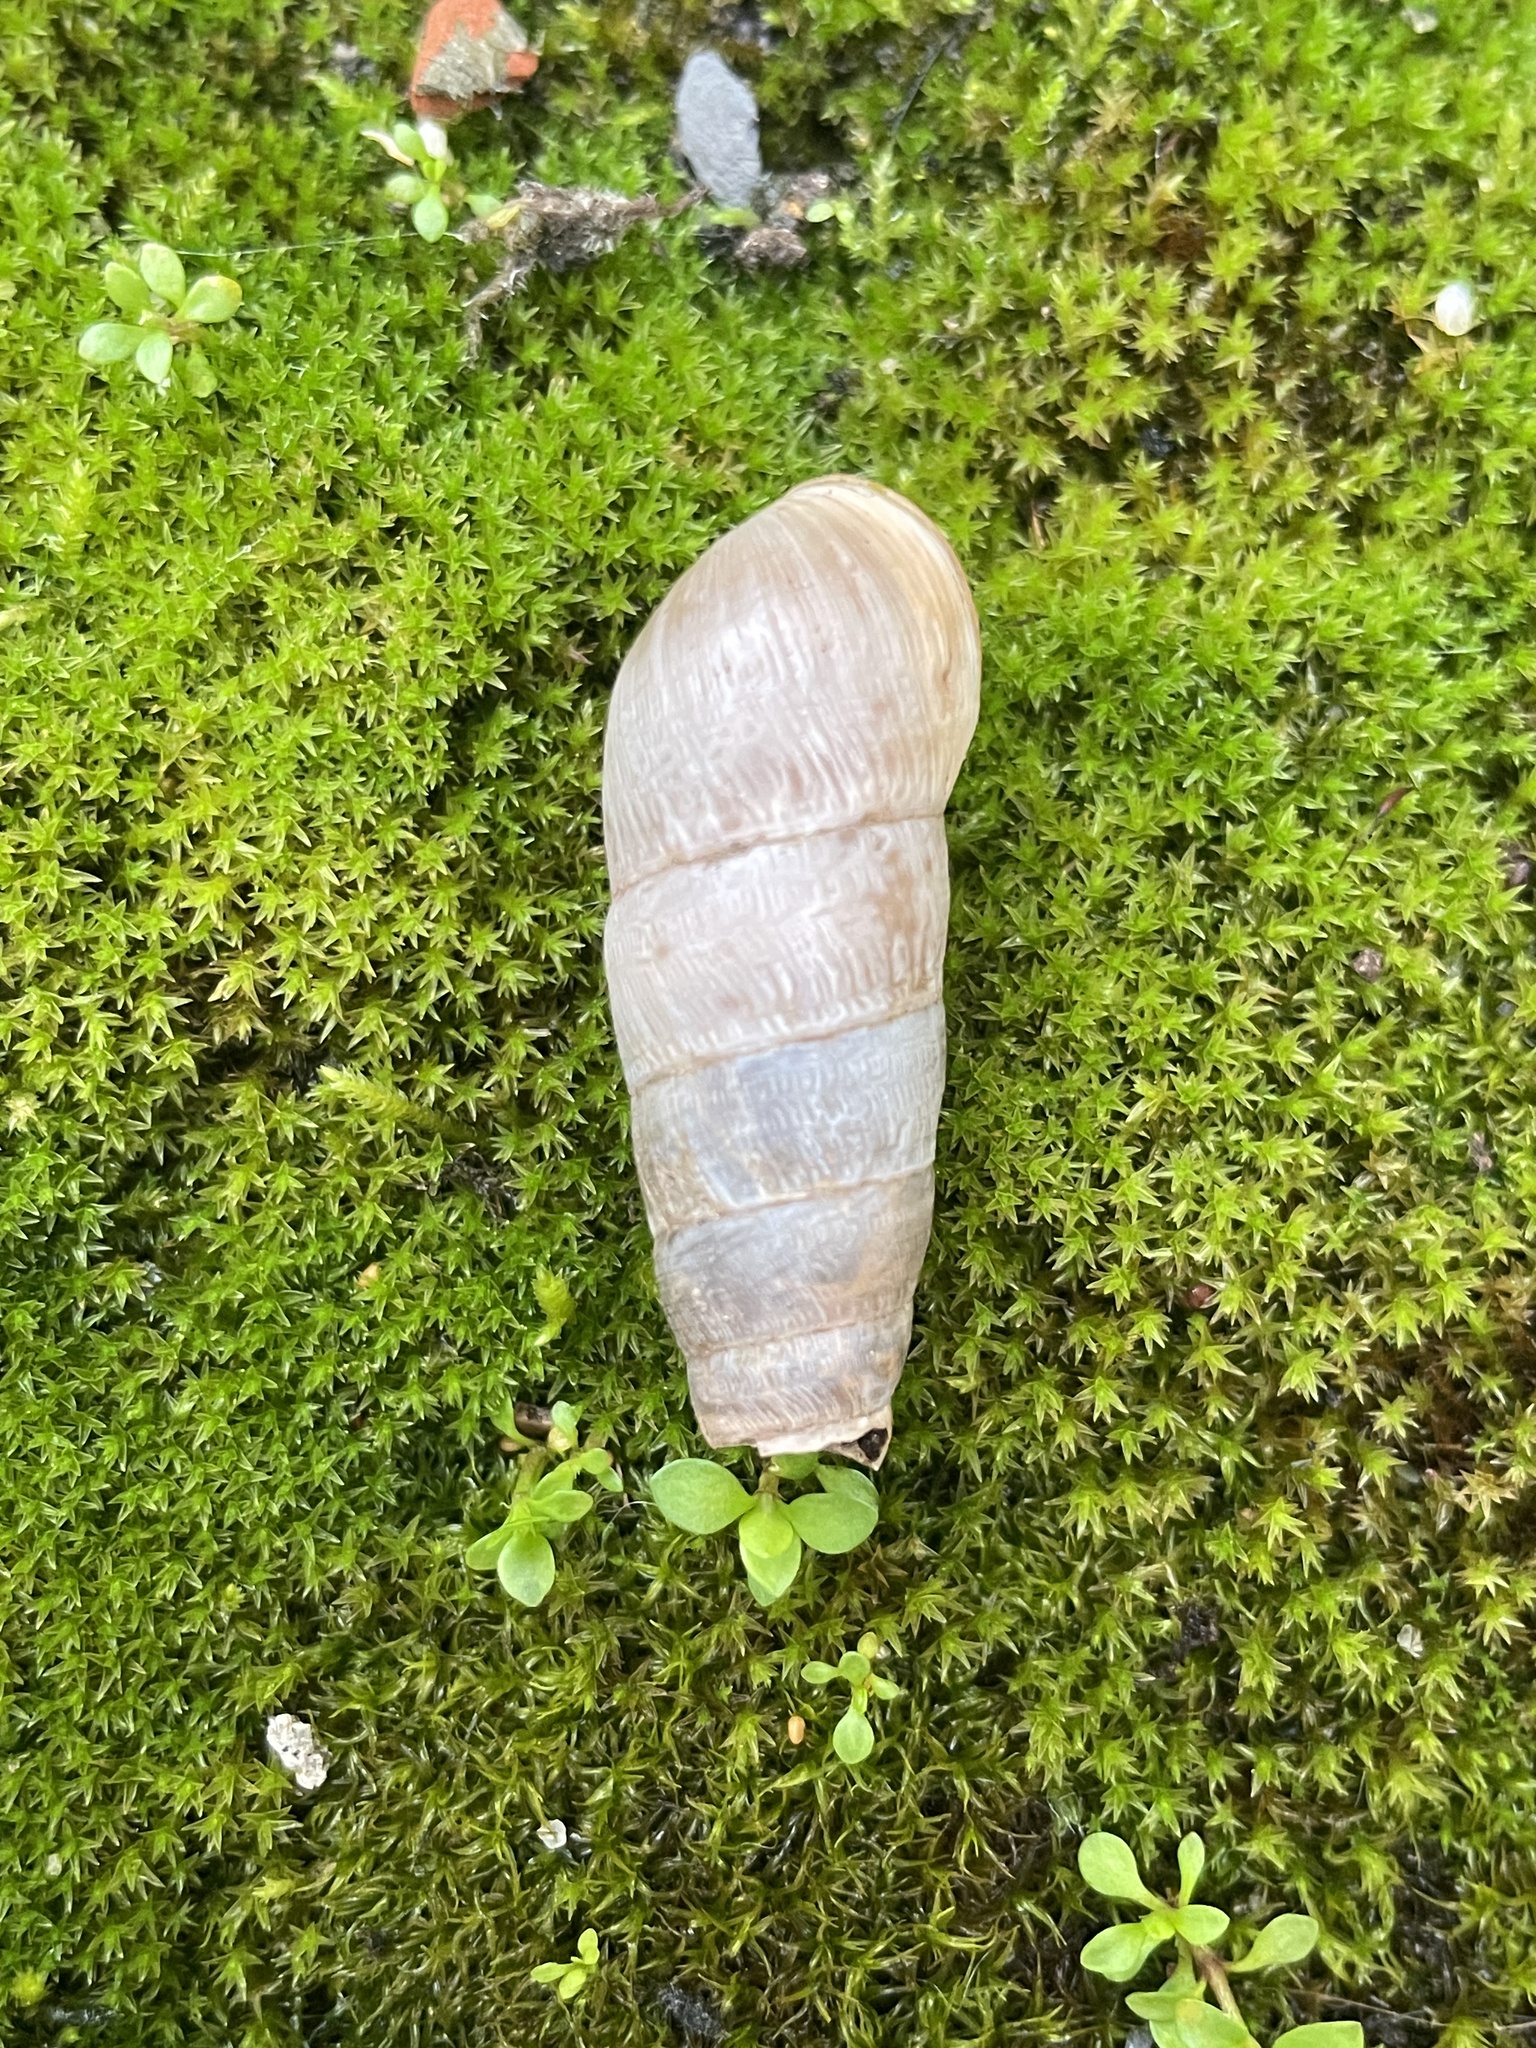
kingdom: Animalia
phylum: Mollusca
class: Gastropoda
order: Stylommatophora
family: Achatinidae
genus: Rumina
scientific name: Rumina decollata
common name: Decollate snail
